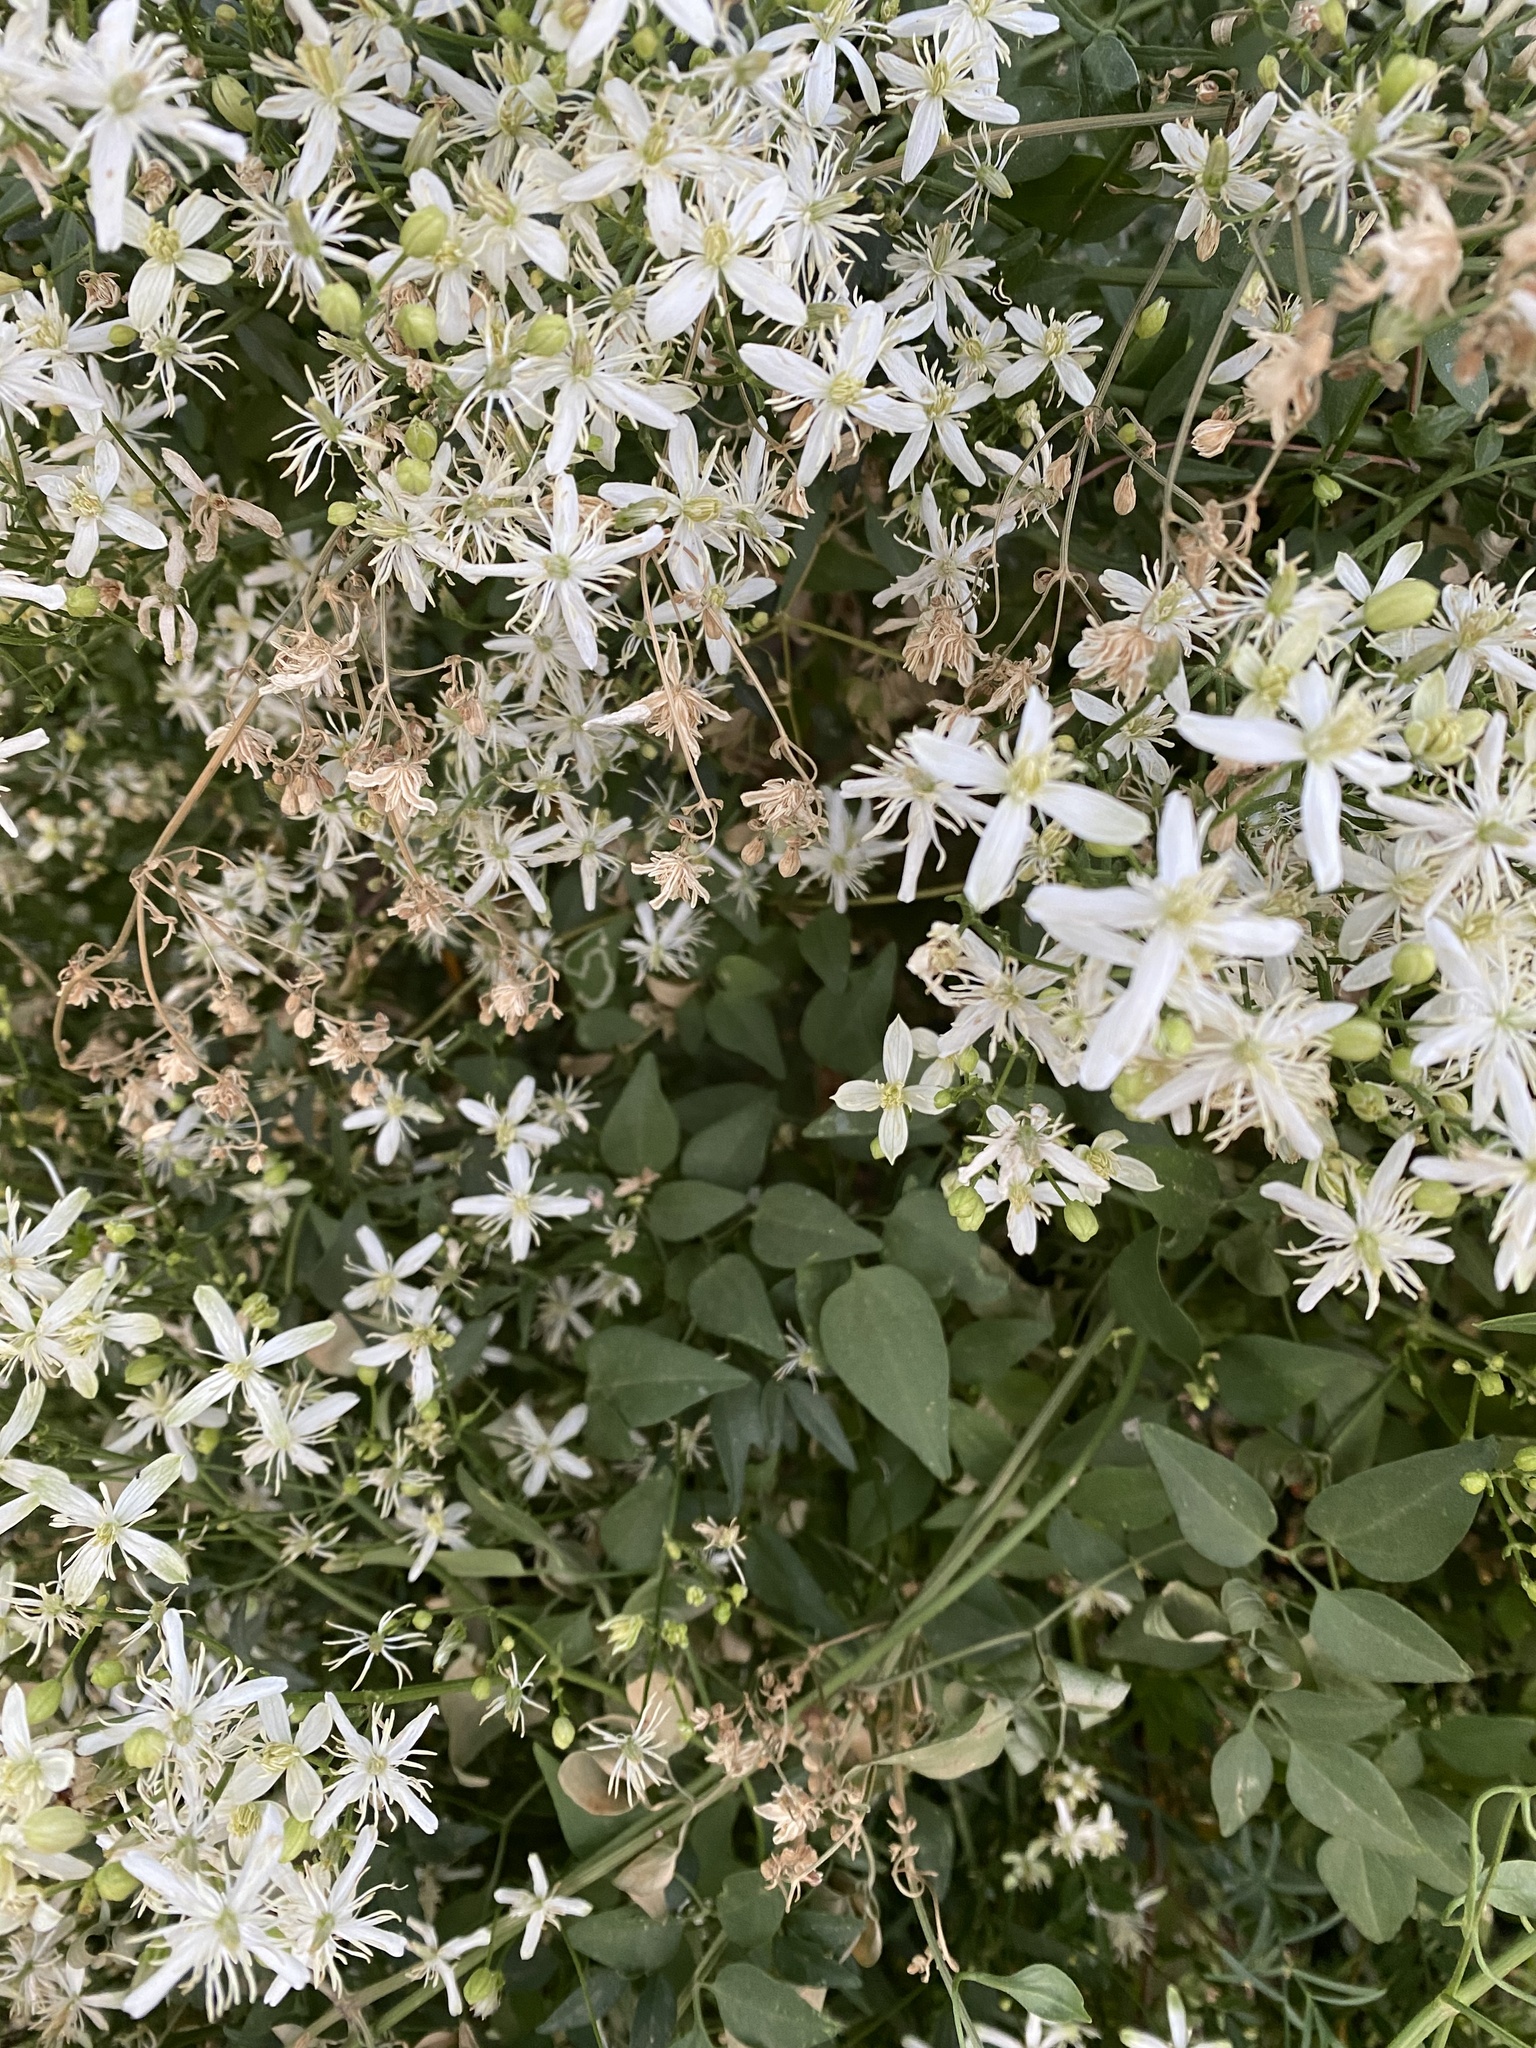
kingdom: Plantae
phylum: Tracheophyta
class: Magnoliopsida
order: Ranunculales
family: Ranunculaceae
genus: Clematis
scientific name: Clematis flammula
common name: Virgin's-bower
